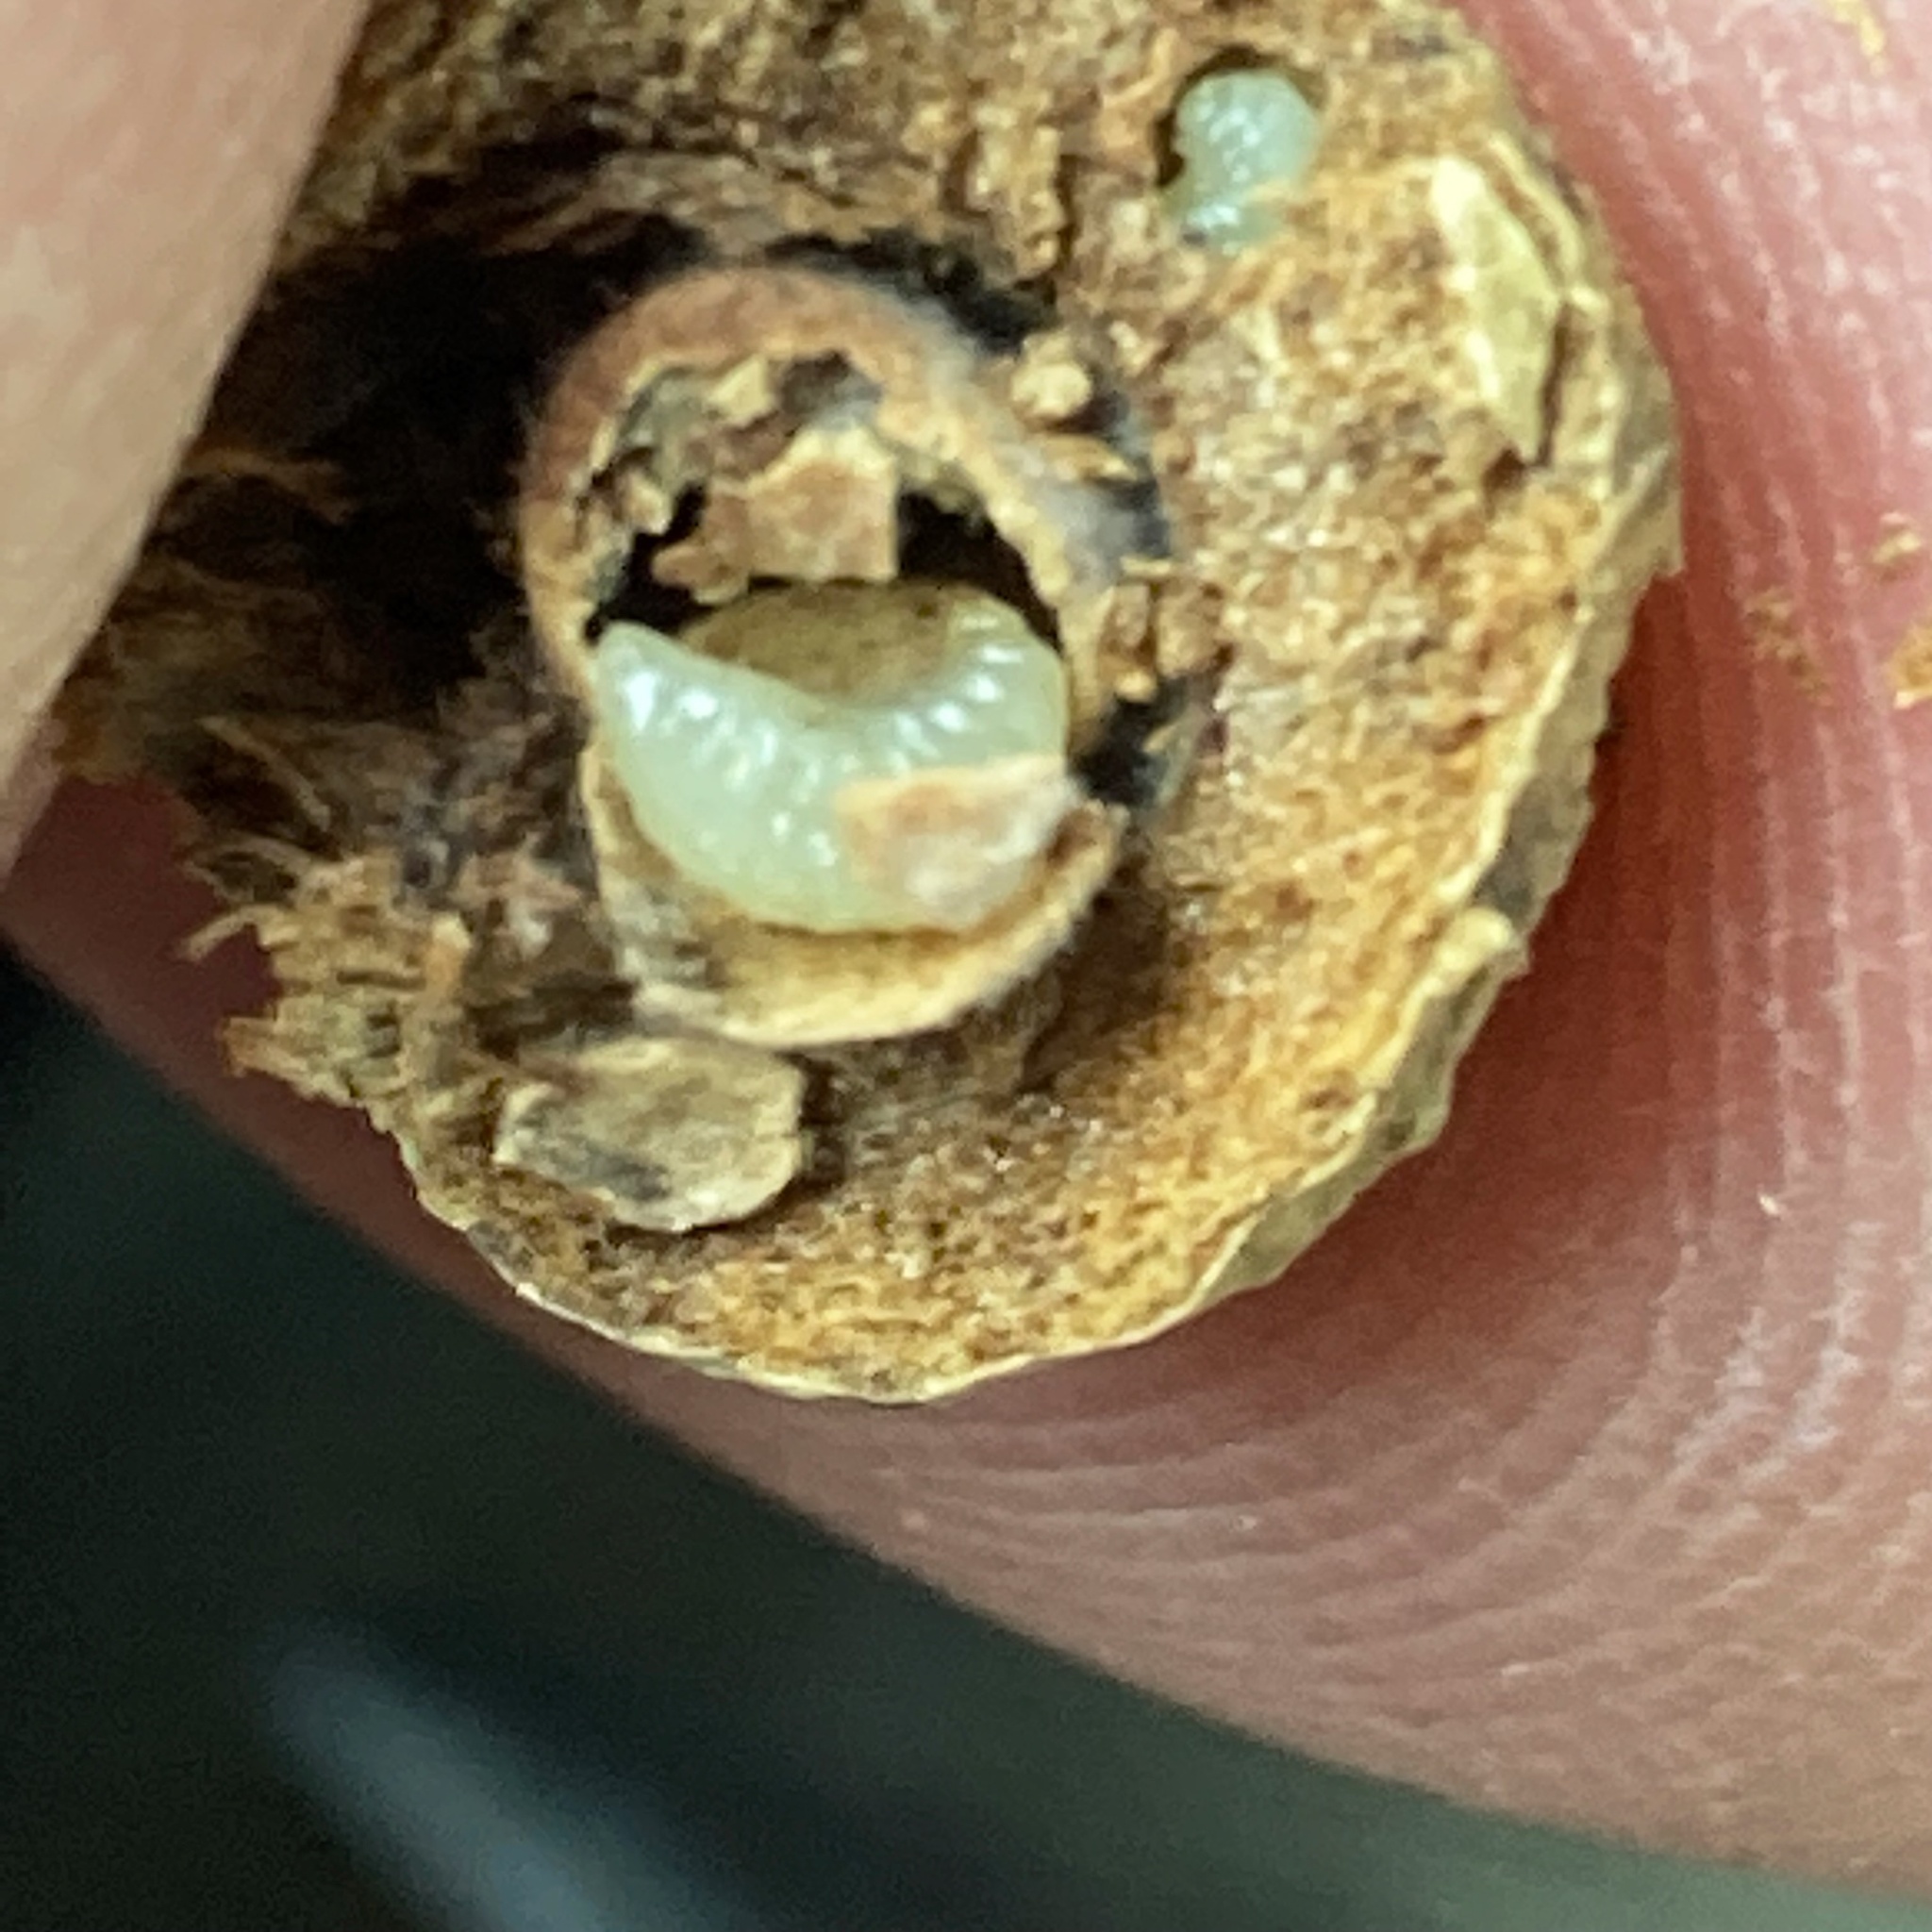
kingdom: Animalia
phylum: Arthropoda
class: Insecta
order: Hymenoptera
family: Cynipidae
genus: Disholcaspis
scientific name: Disholcaspis quercusglobulus
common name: Round bullet gall wasp
